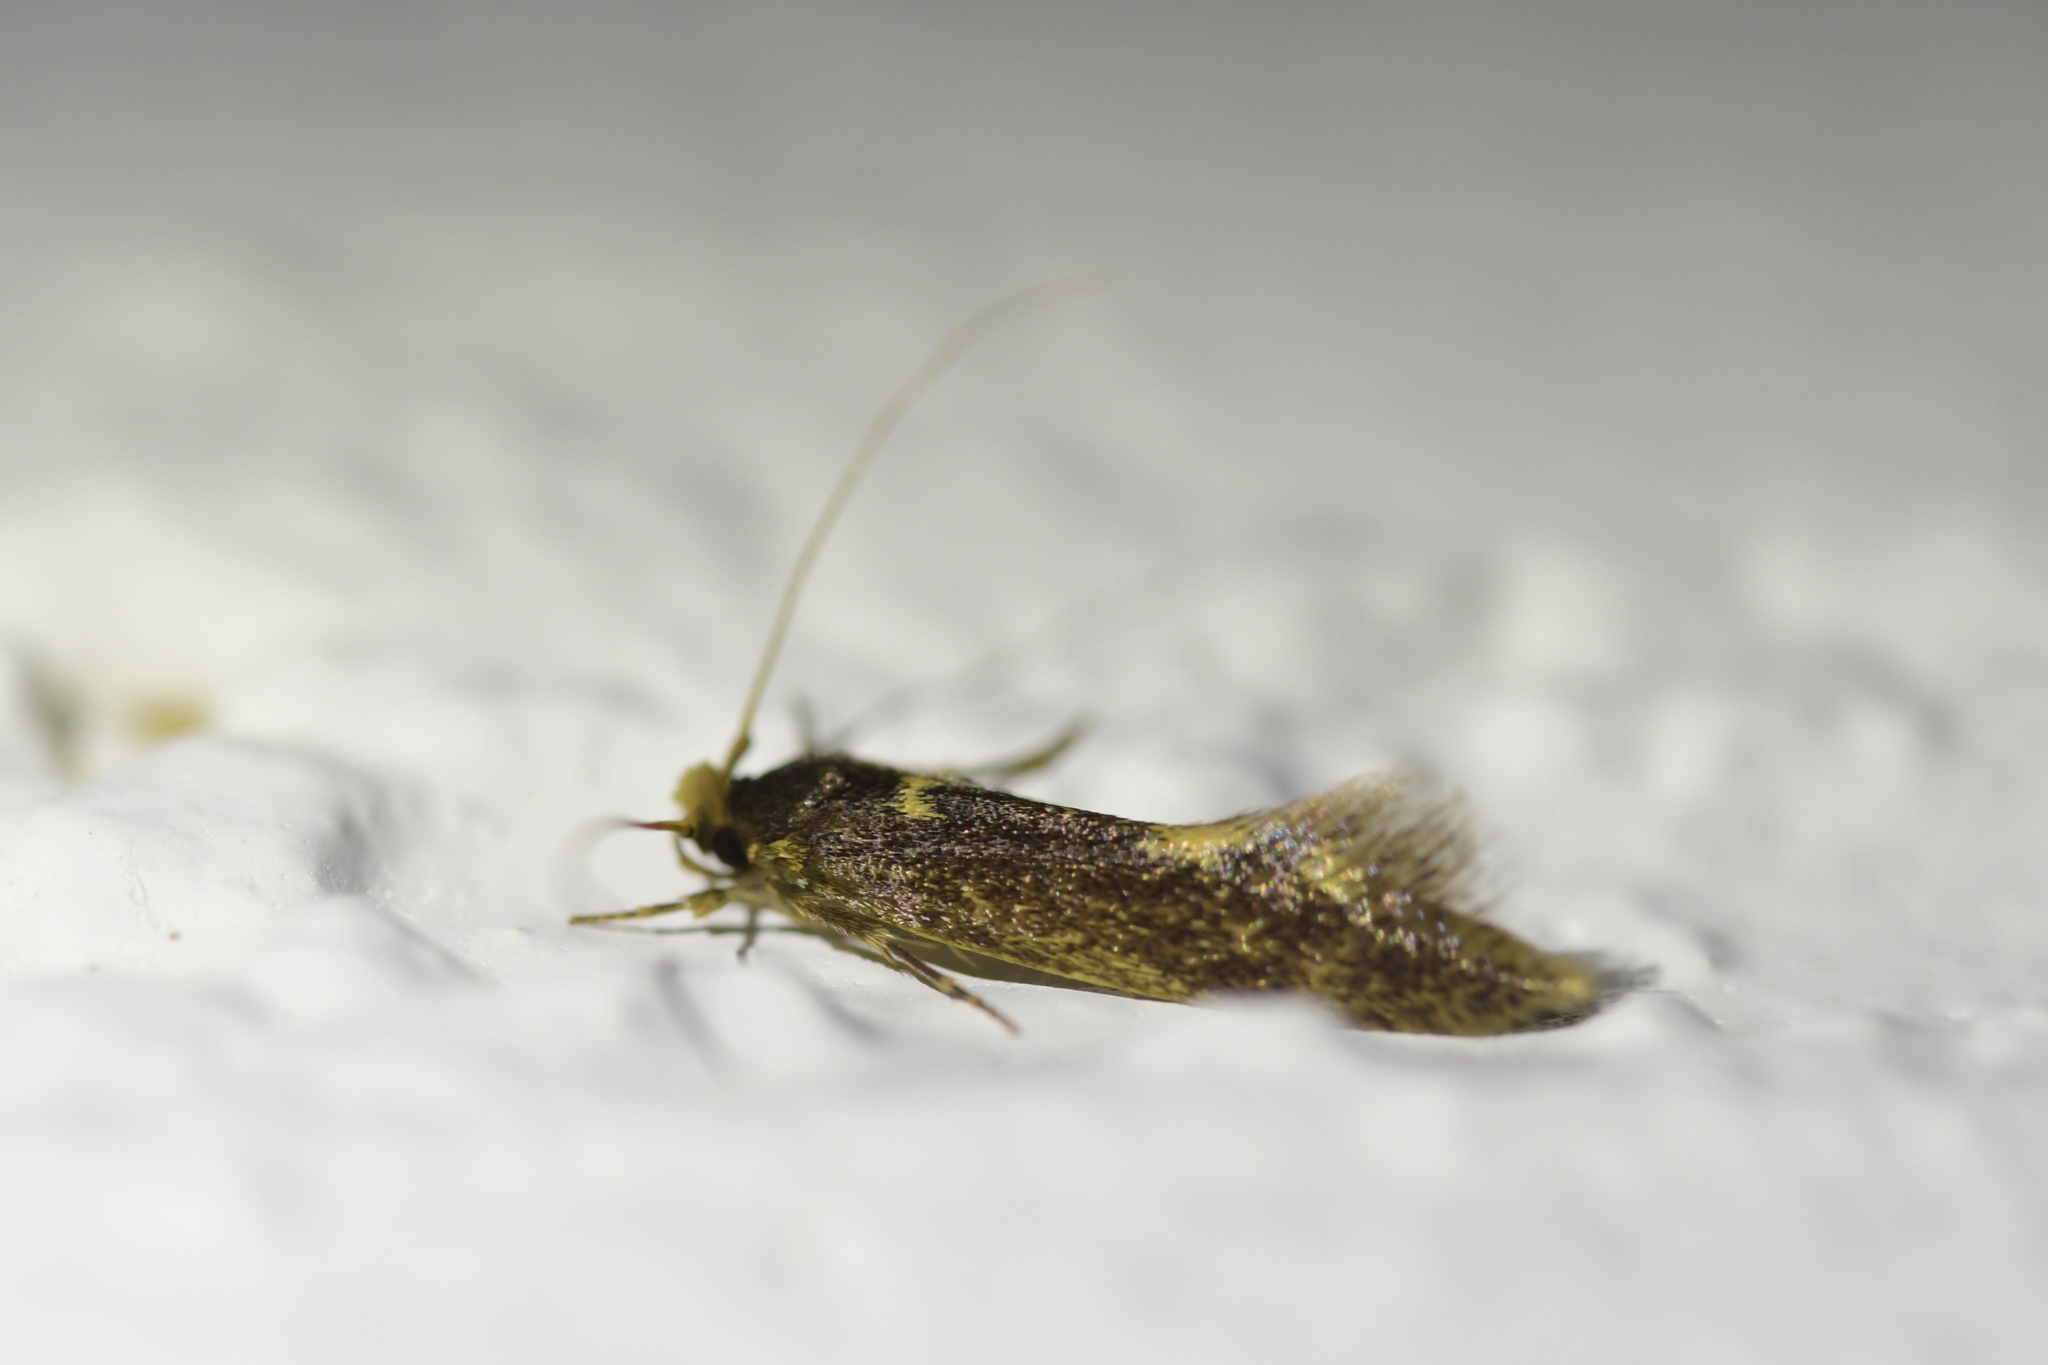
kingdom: Animalia
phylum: Arthropoda
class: Insecta
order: Lepidoptera
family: Tineidae
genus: Opogona
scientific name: Opogona omoscopa
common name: Moth
